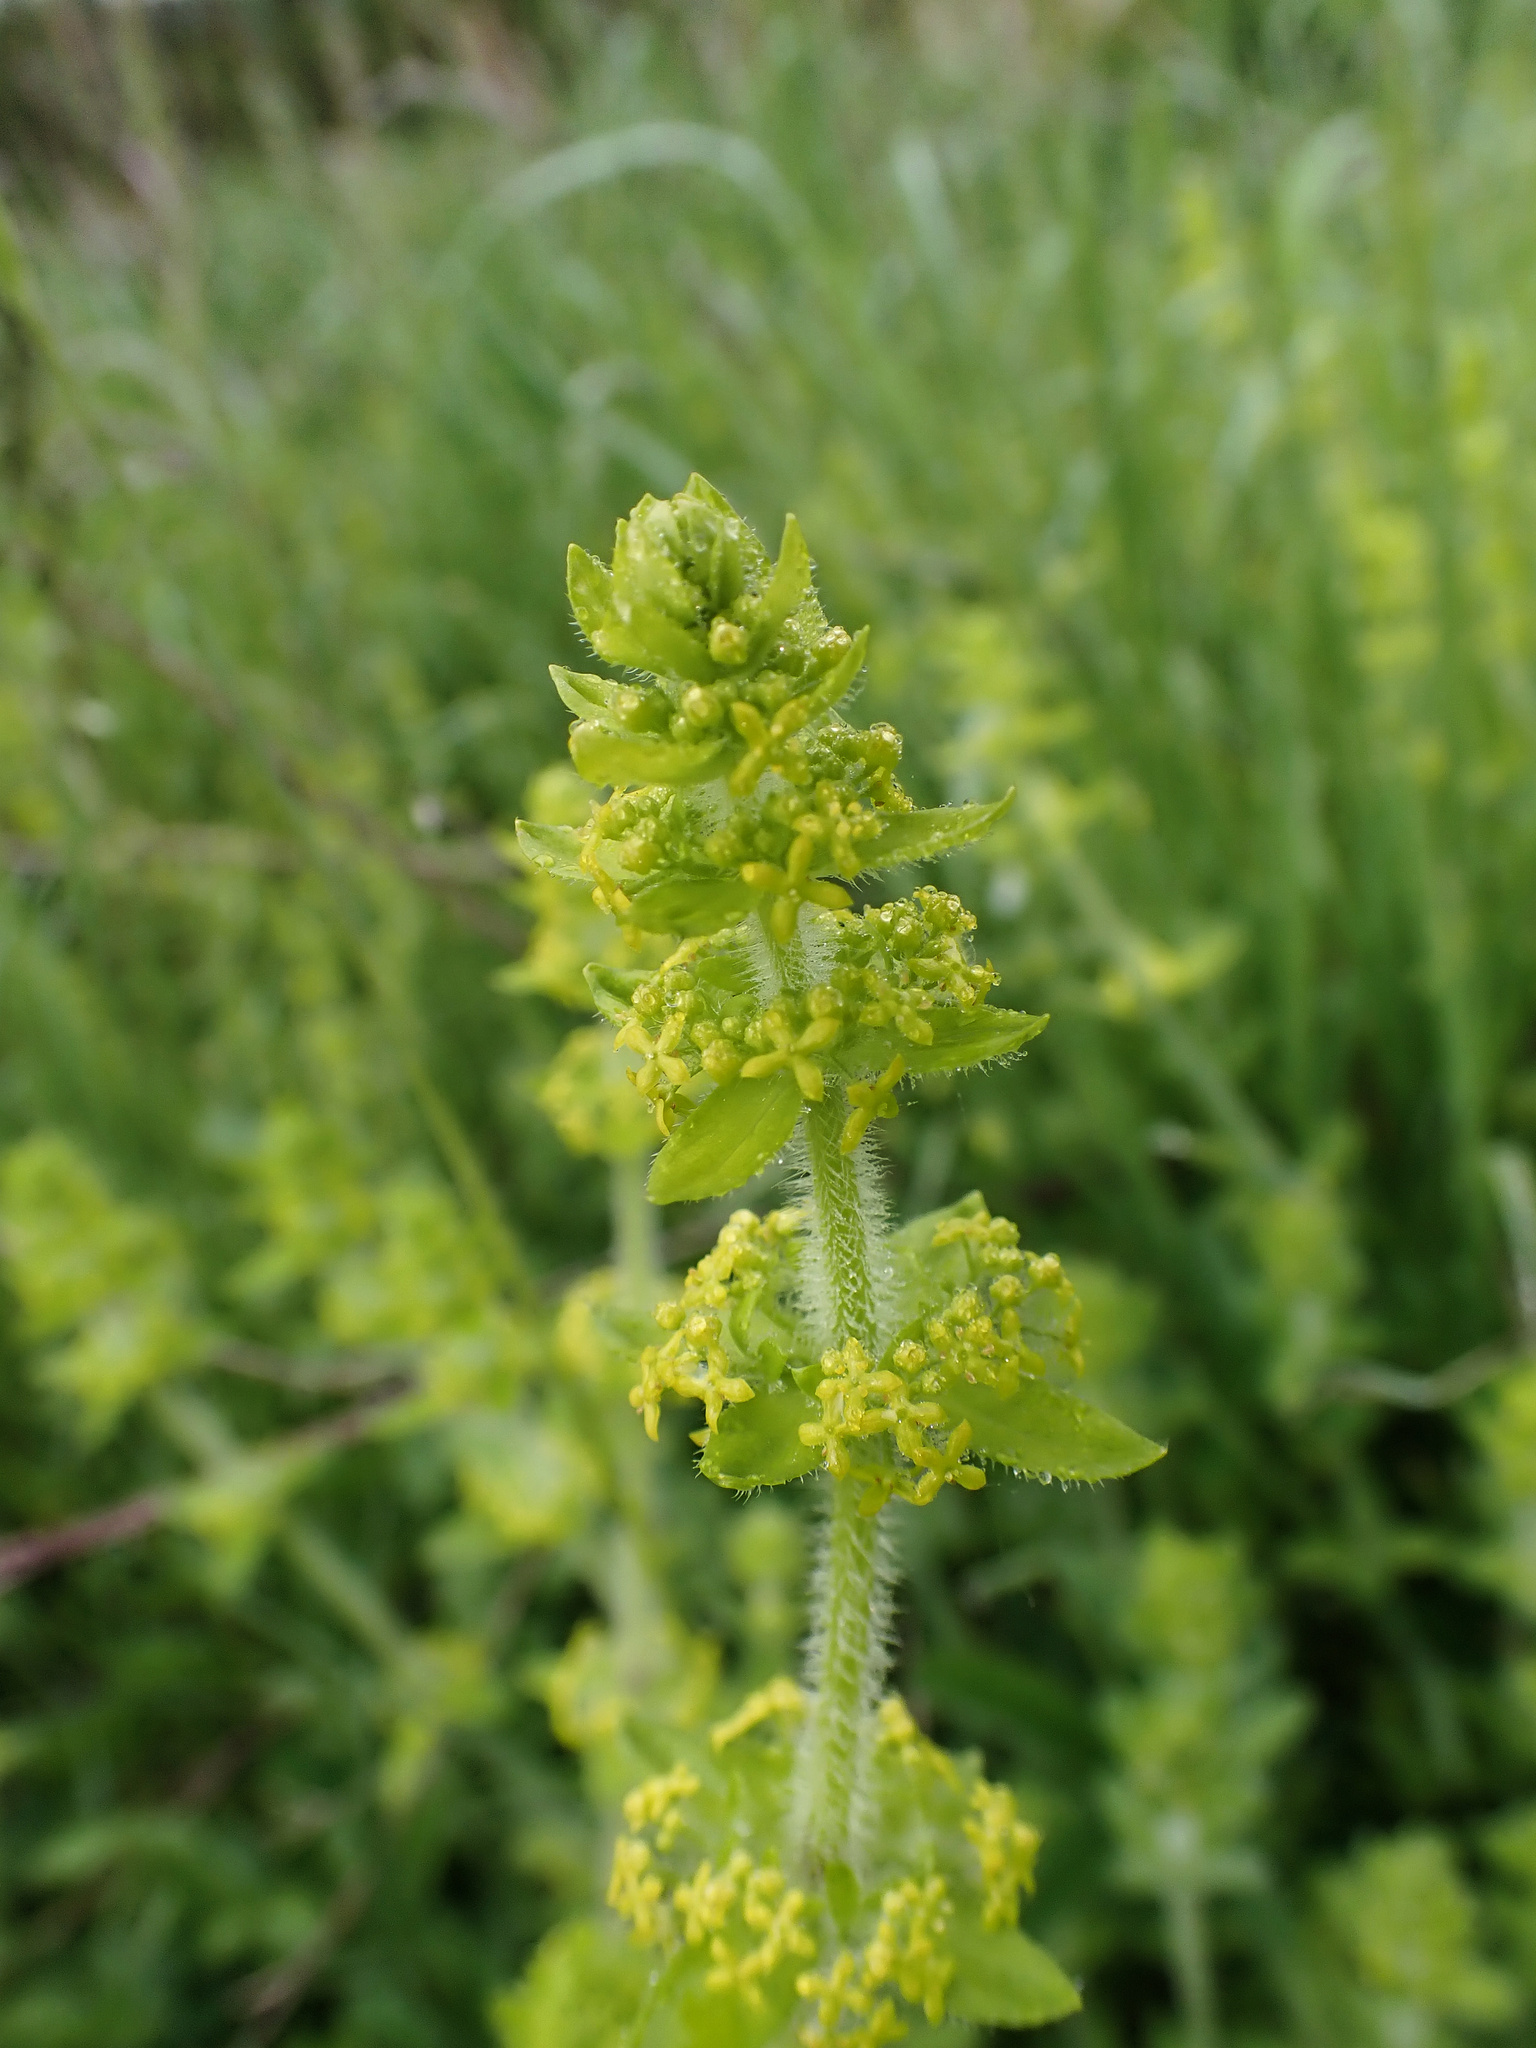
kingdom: Plantae
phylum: Tracheophyta
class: Magnoliopsida
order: Gentianales
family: Rubiaceae
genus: Cruciata
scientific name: Cruciata laevipes
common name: Crosswort
